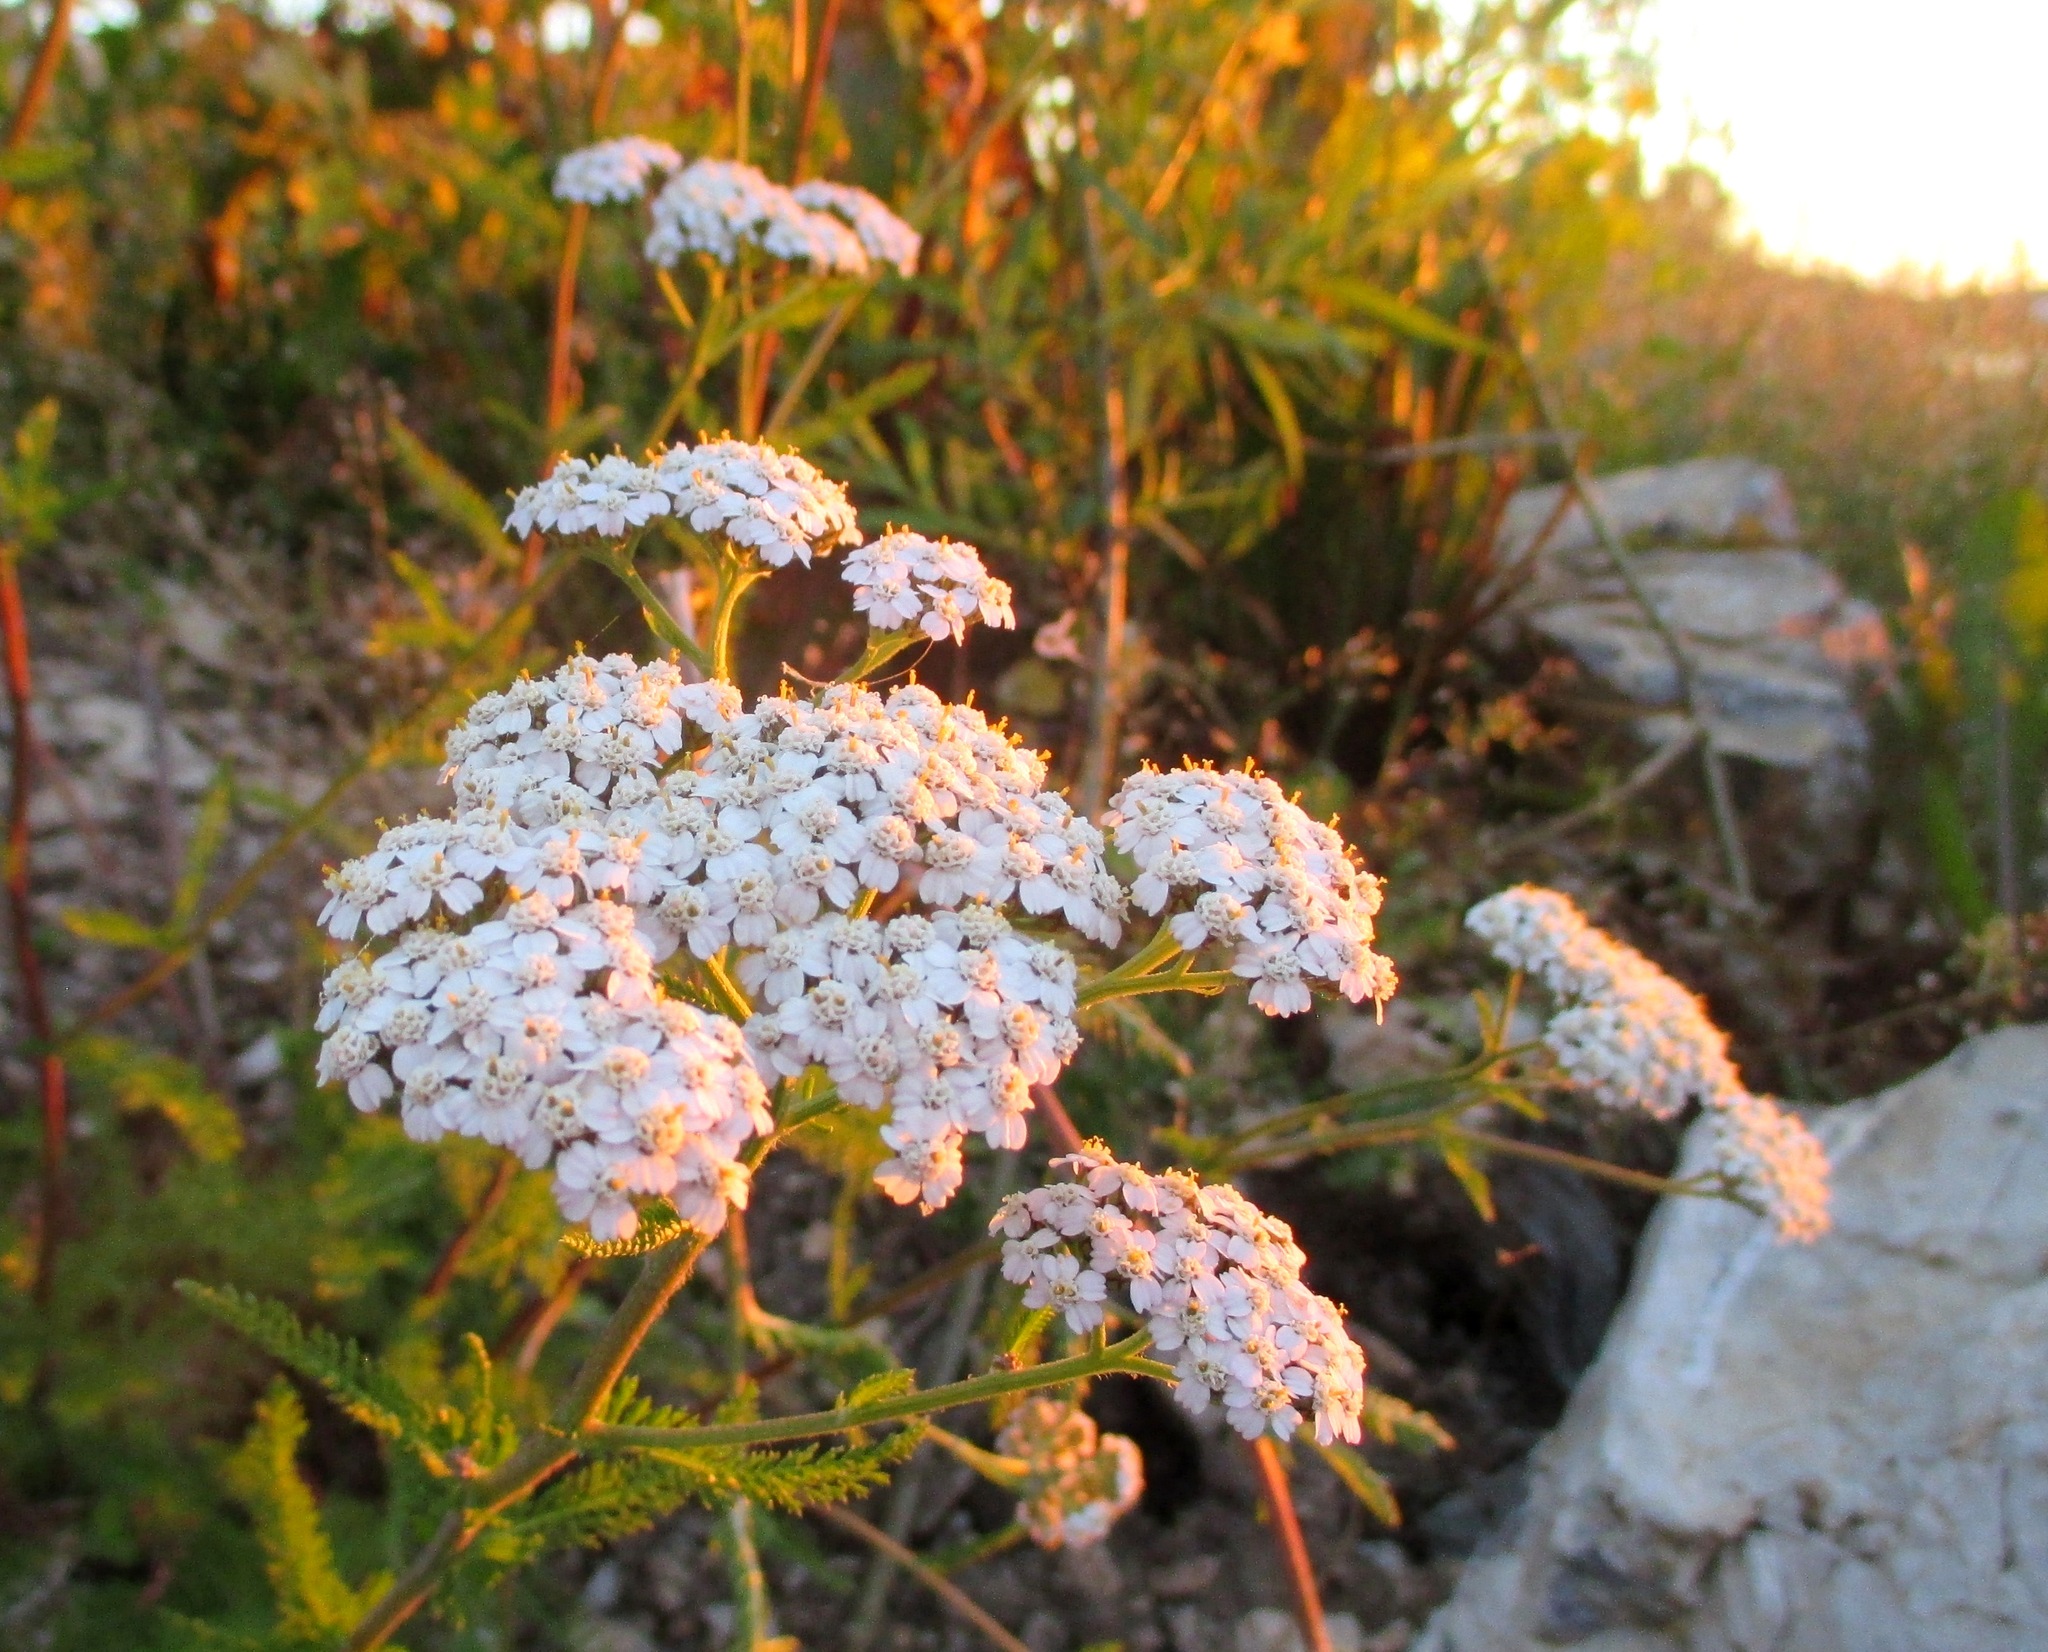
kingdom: Plantae
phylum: Tracheophyta
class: Magnoliopsida
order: Asterales
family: Asteraceae
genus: Achillea
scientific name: Achillea millefolium
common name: Yarrow
